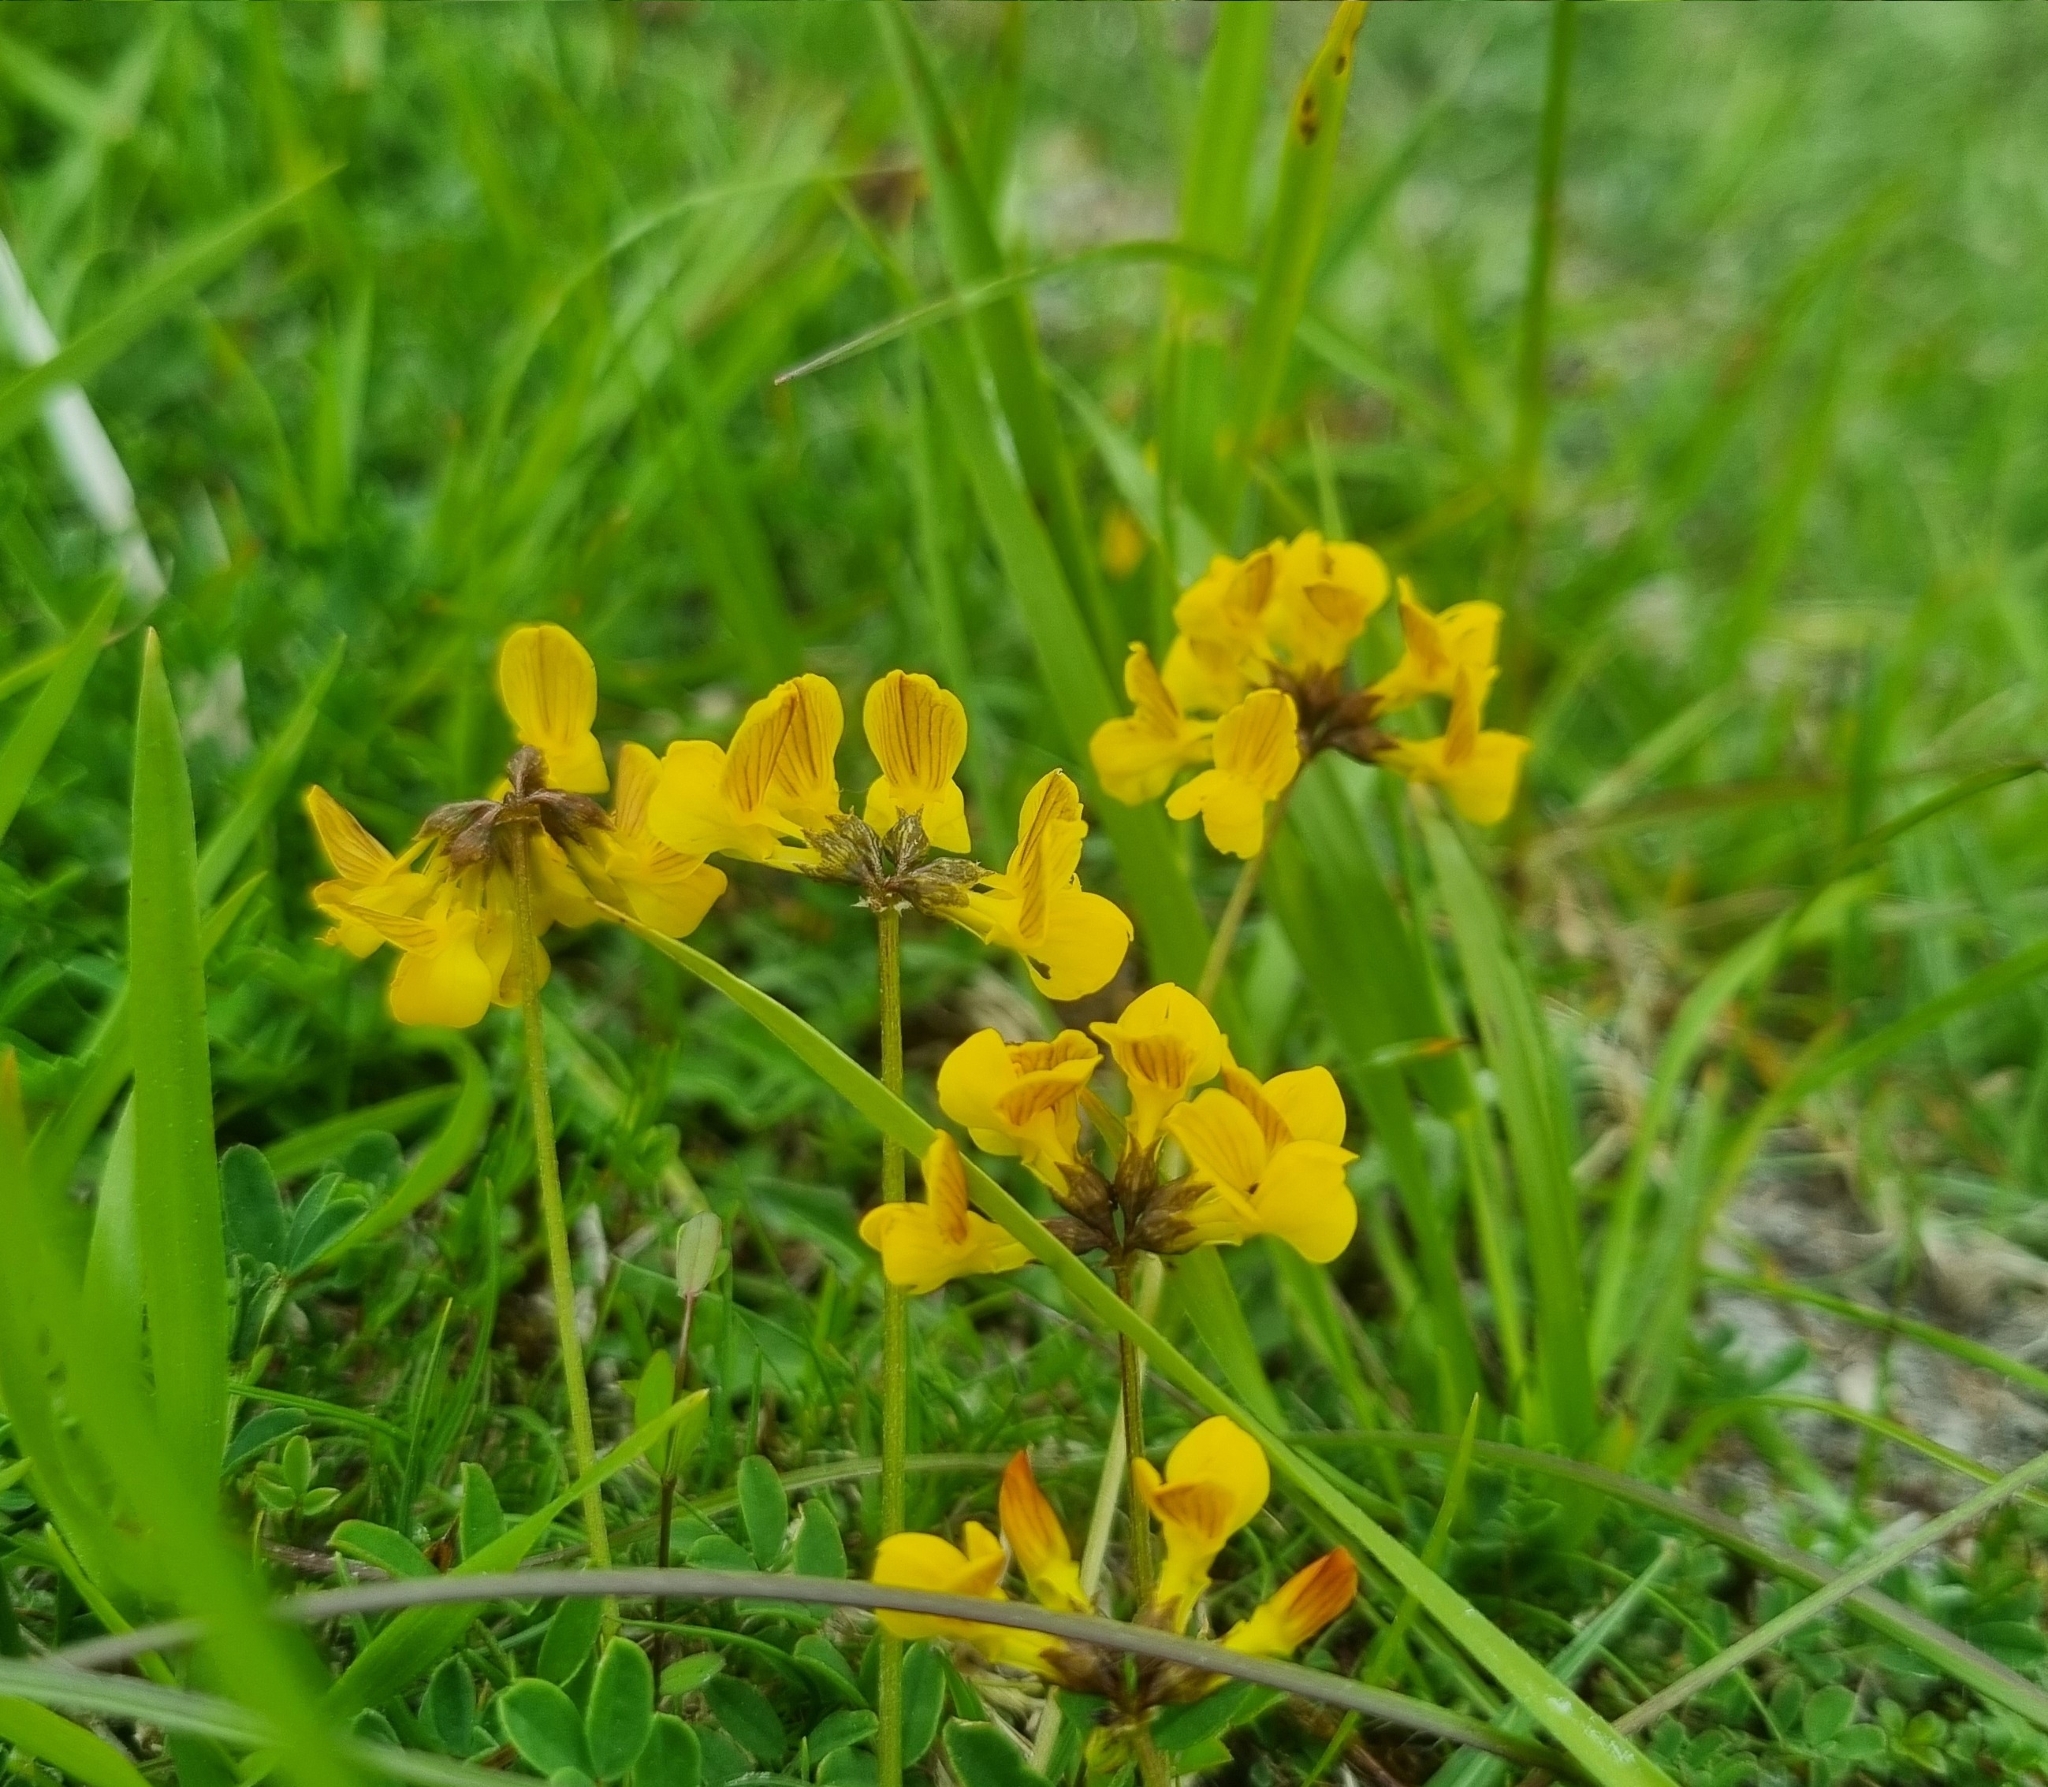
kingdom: Plantae
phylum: Tracheophyta
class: Magnoliopsida
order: Fabales
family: Fabaceae
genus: Hippocrepis
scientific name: Hippocrepis comosa
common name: Horseshoe vetch
